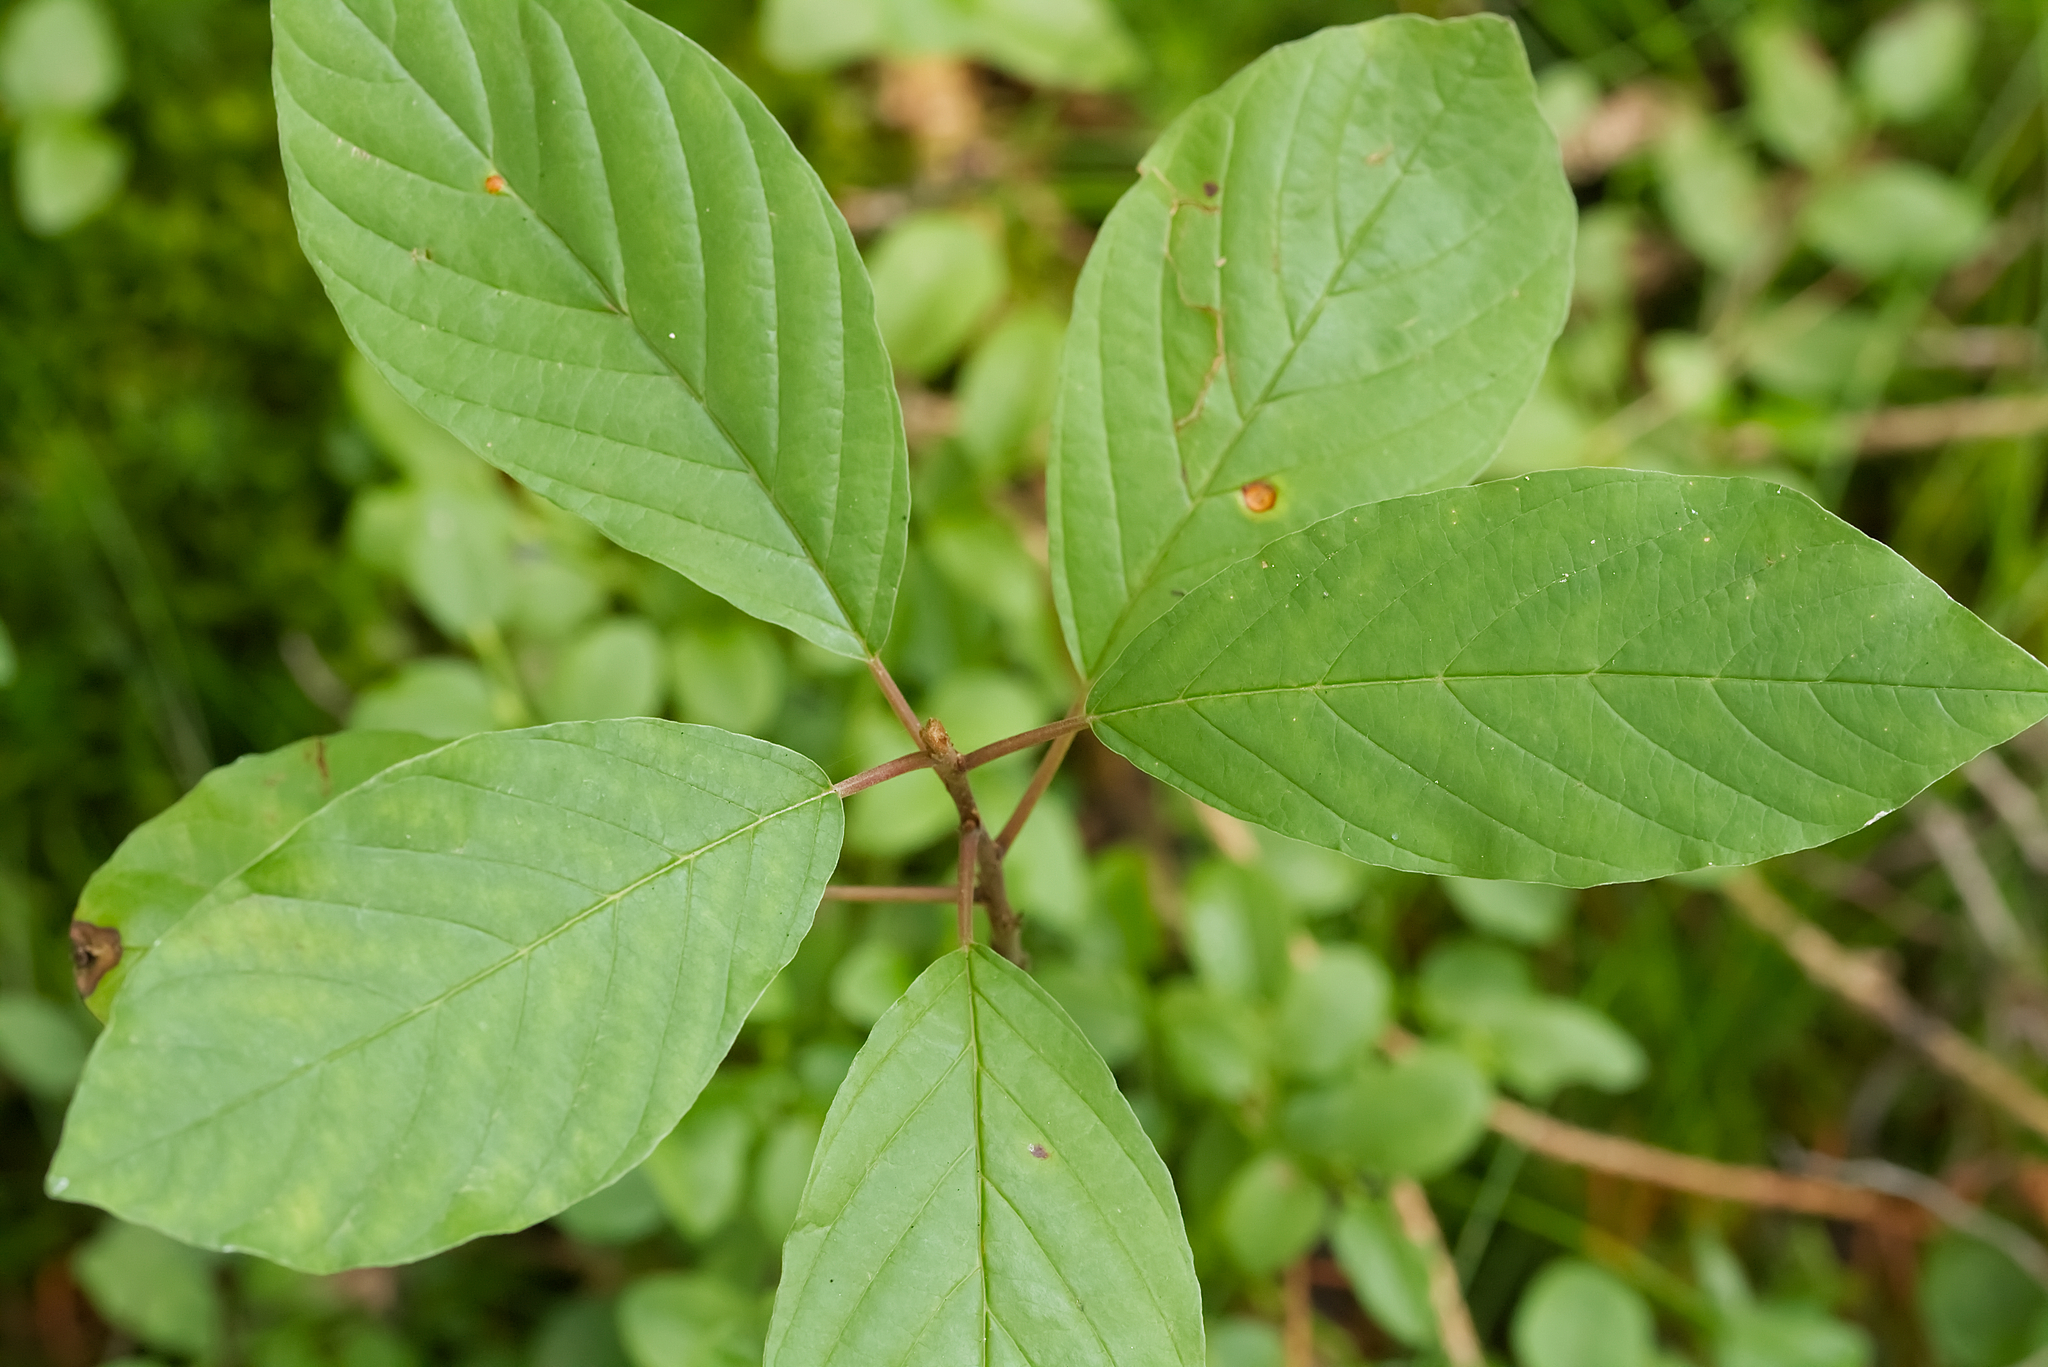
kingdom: Plantae
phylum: Tracheophyta
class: Magnoliopsida
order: Rosales
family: Rhamnaceae
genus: Frangula
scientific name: Frangula alnus
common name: Alder buckthorn
